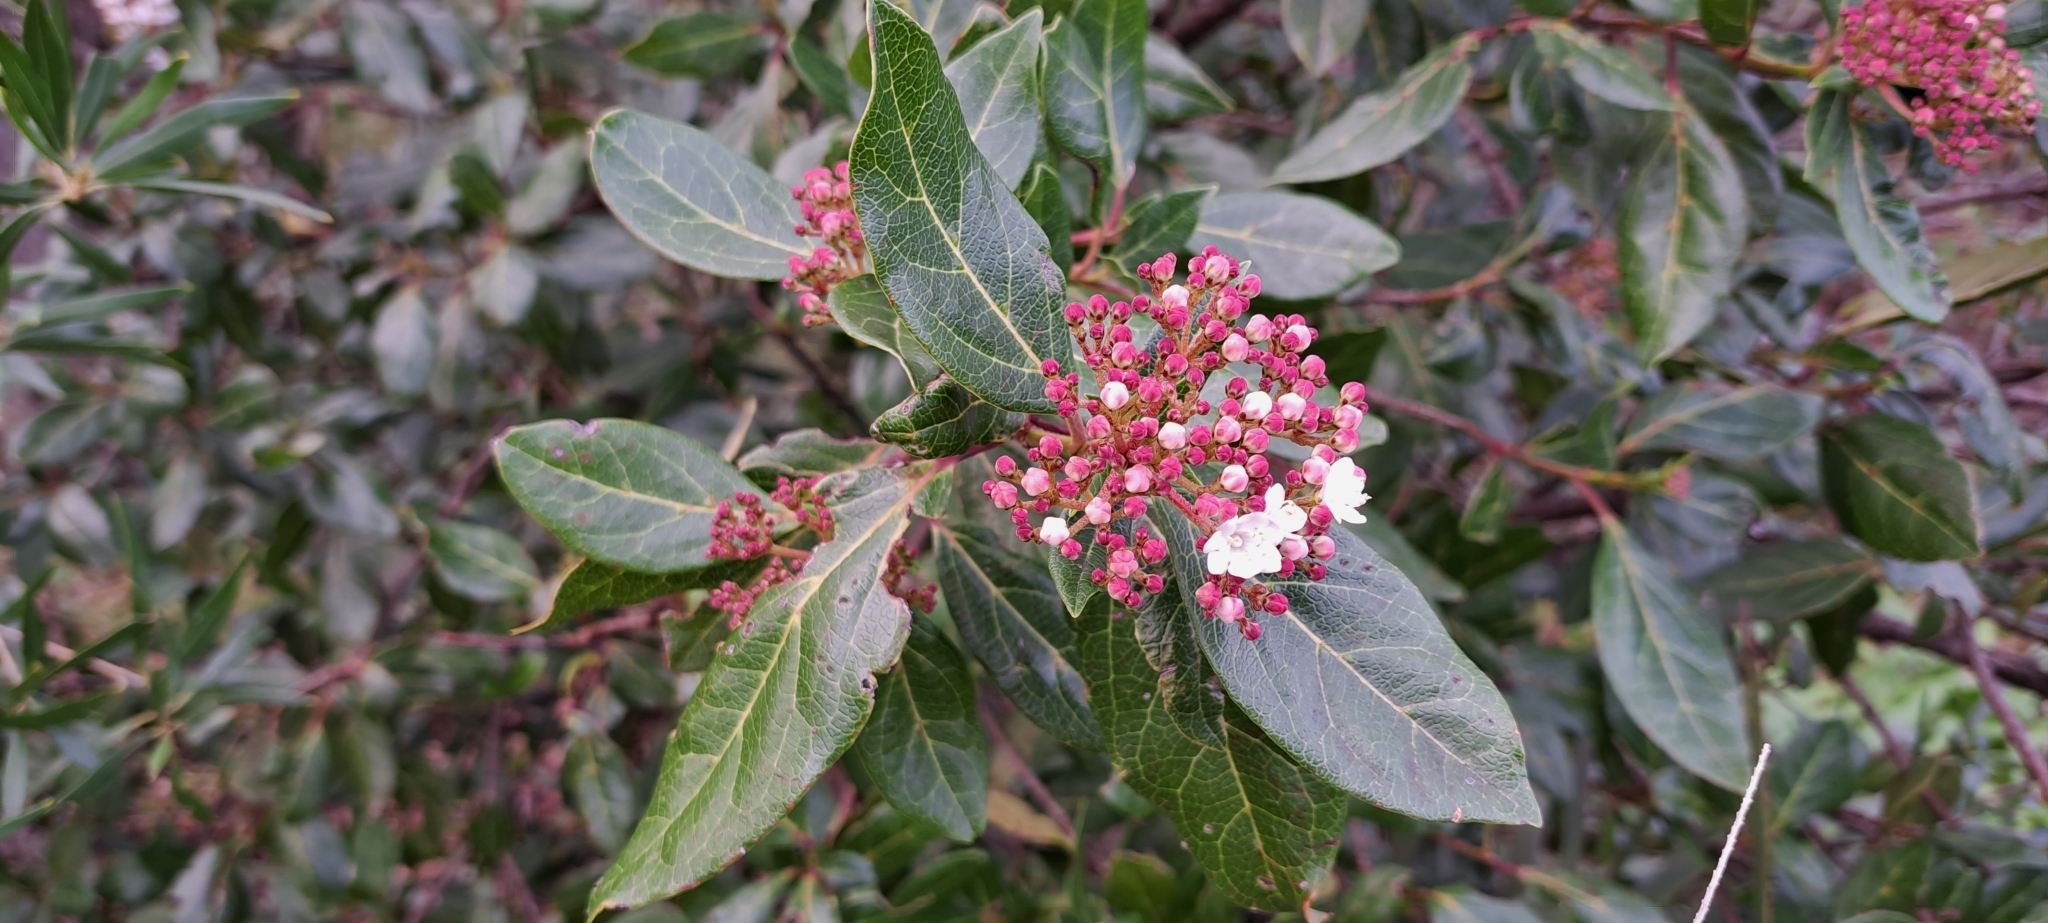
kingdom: Plantae
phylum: Tracheophyta
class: Magnoliopsida
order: Dipsacales
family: Viburnaceae
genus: Viburnum
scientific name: Viburnum tinus
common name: Laurustinus
